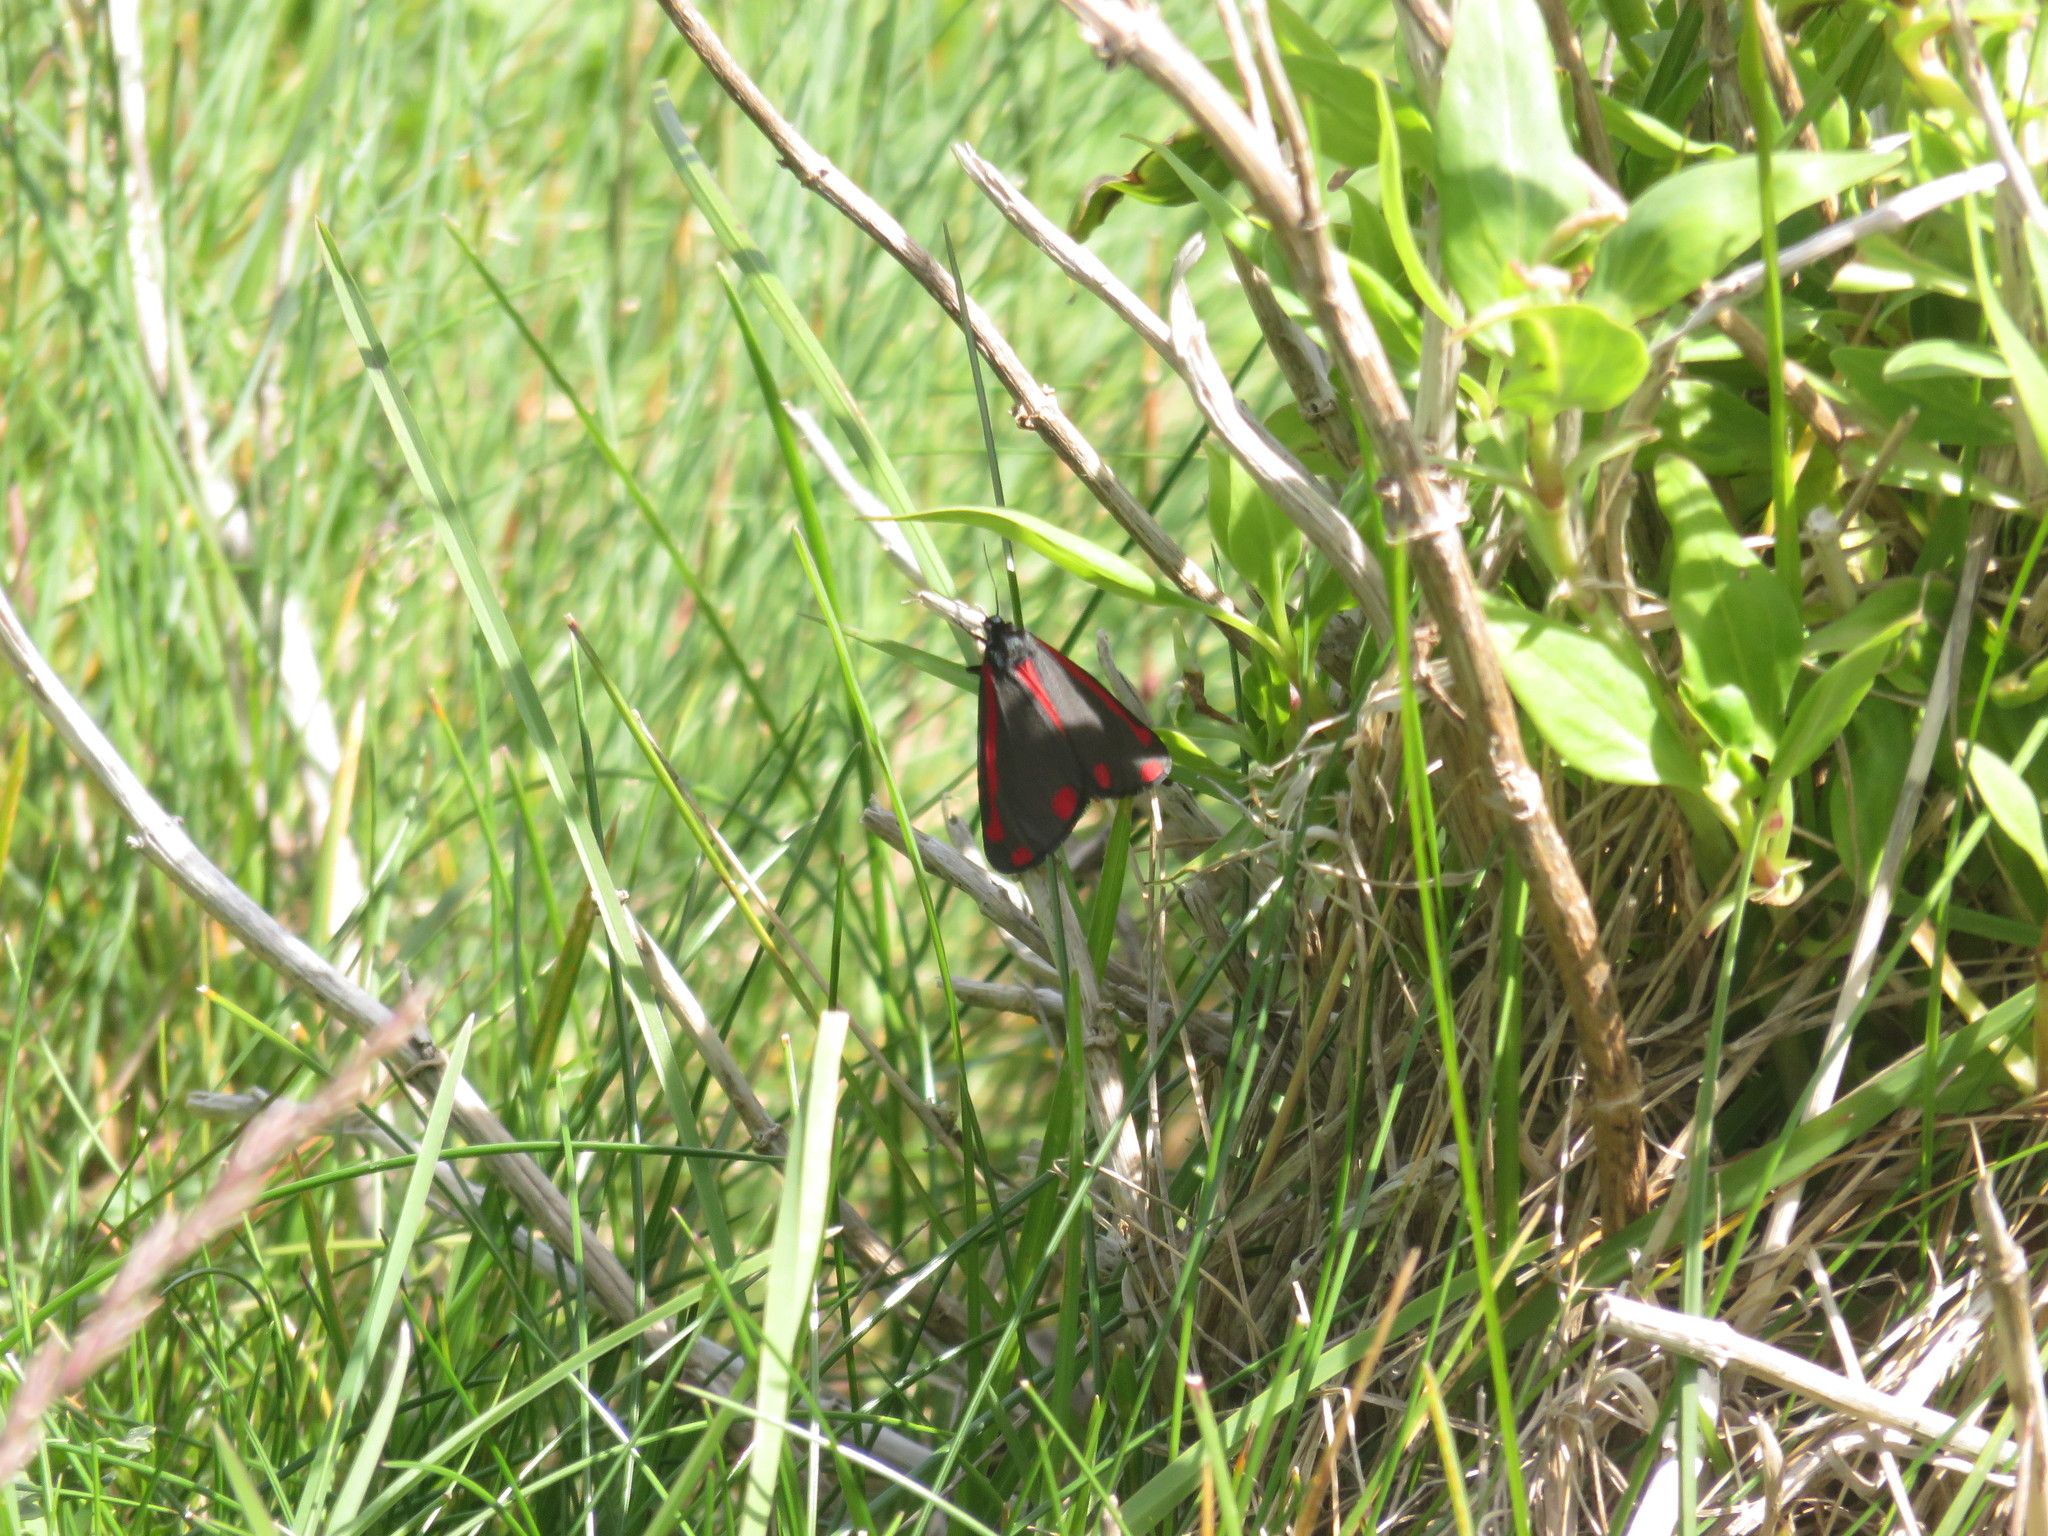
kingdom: Animalia
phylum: Arthropoda
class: Insecta
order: Lepidoptera
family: Erebidae
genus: Tyria
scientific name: Tyria jacobaeae
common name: Cinnabar
